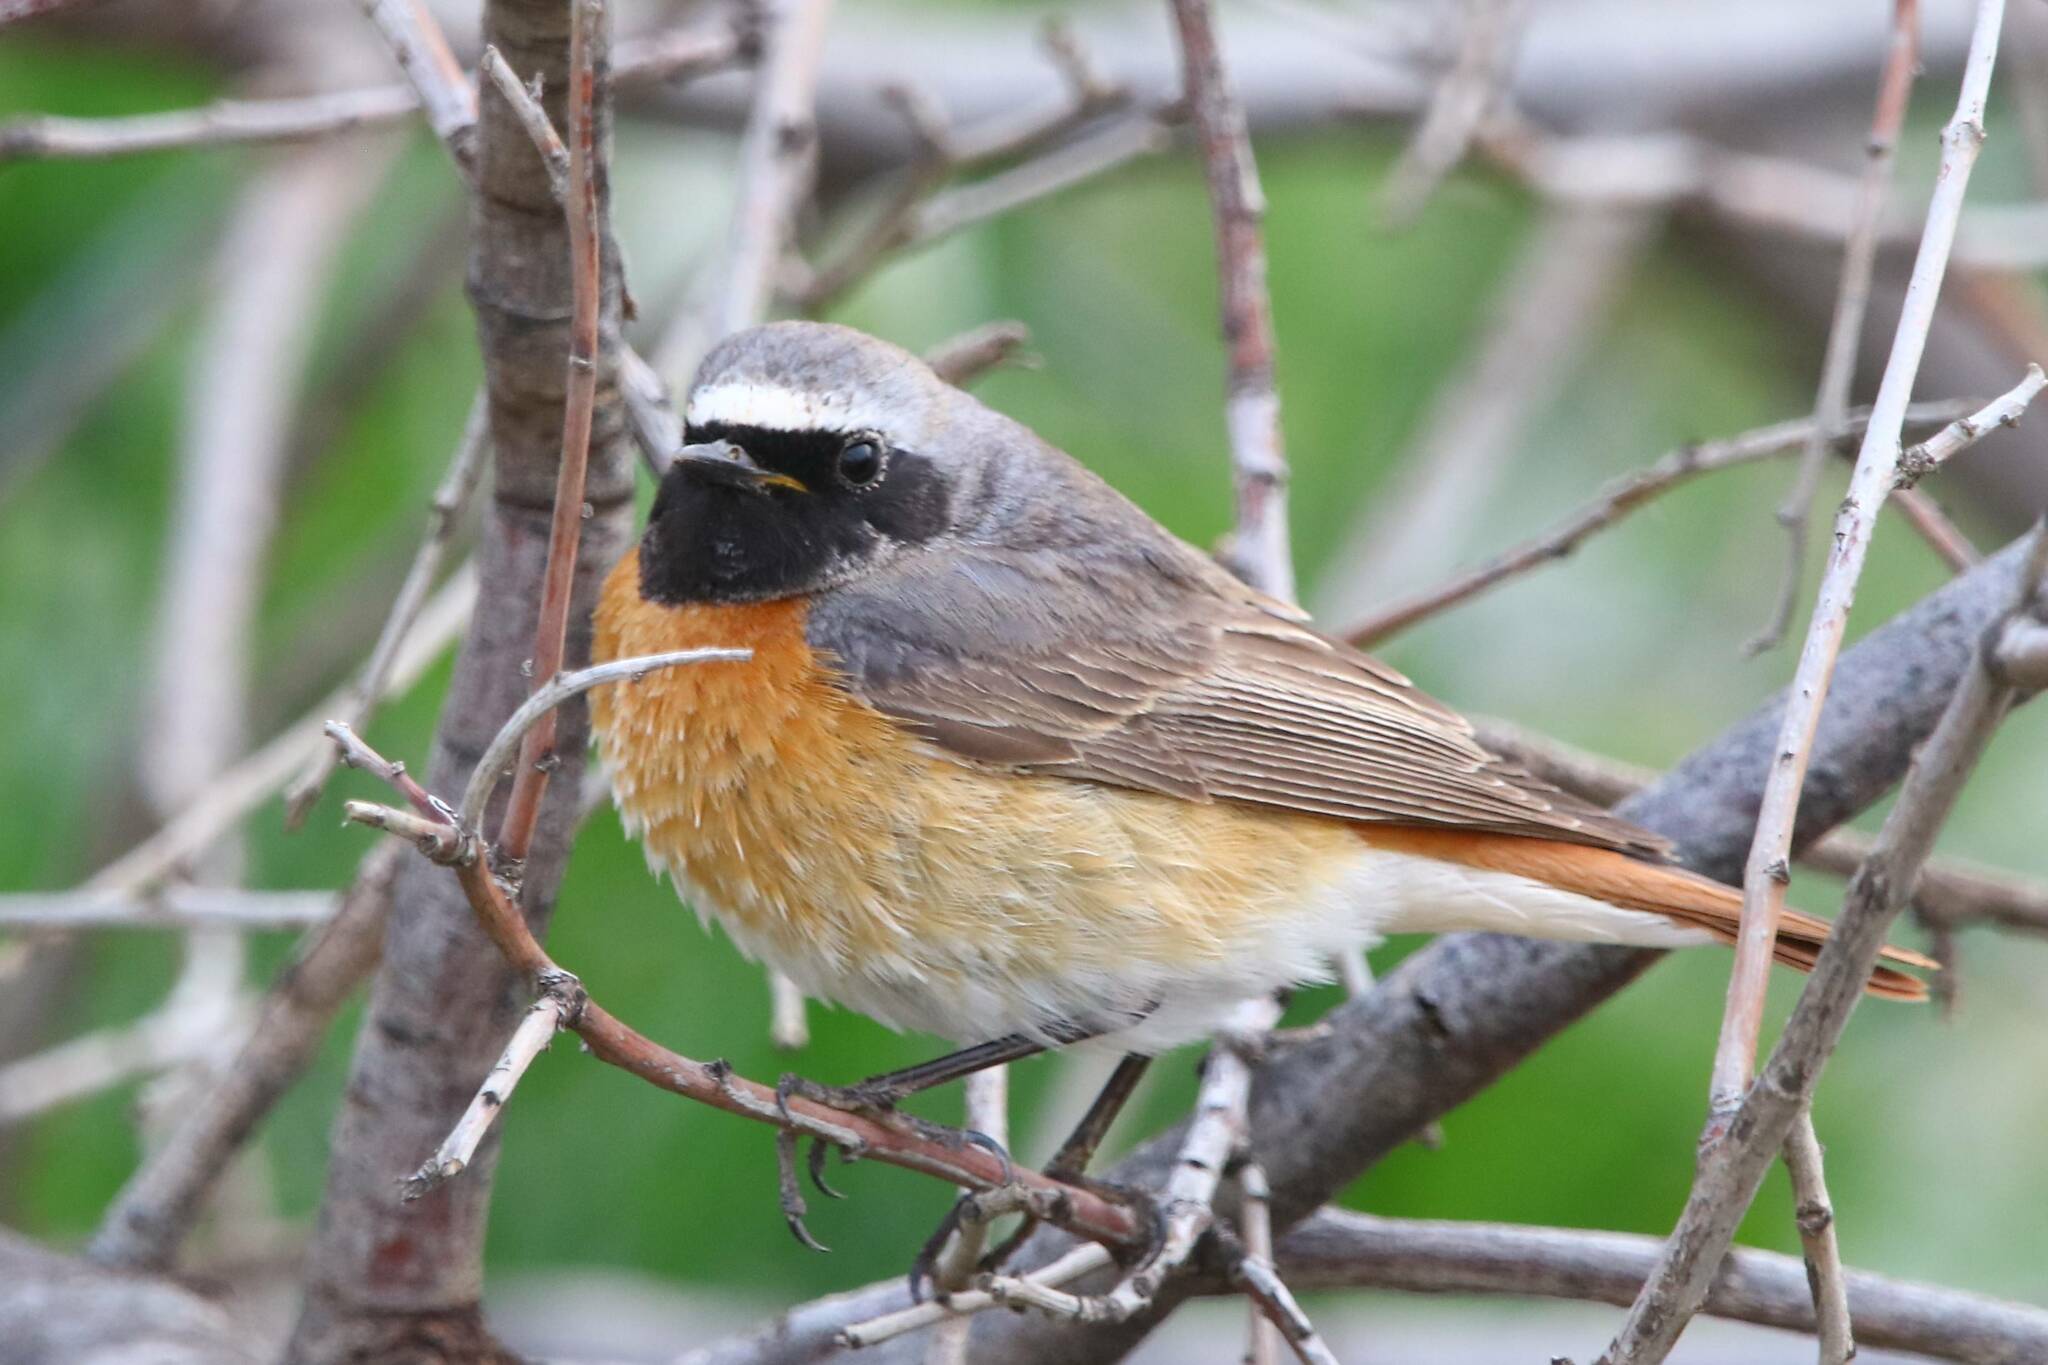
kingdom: Animalia
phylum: Chordata
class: Aves
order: Passeriformes
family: Muscicapidae
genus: Phoenicurus
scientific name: Phoenicurus phoenicurus
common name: Common redstart
